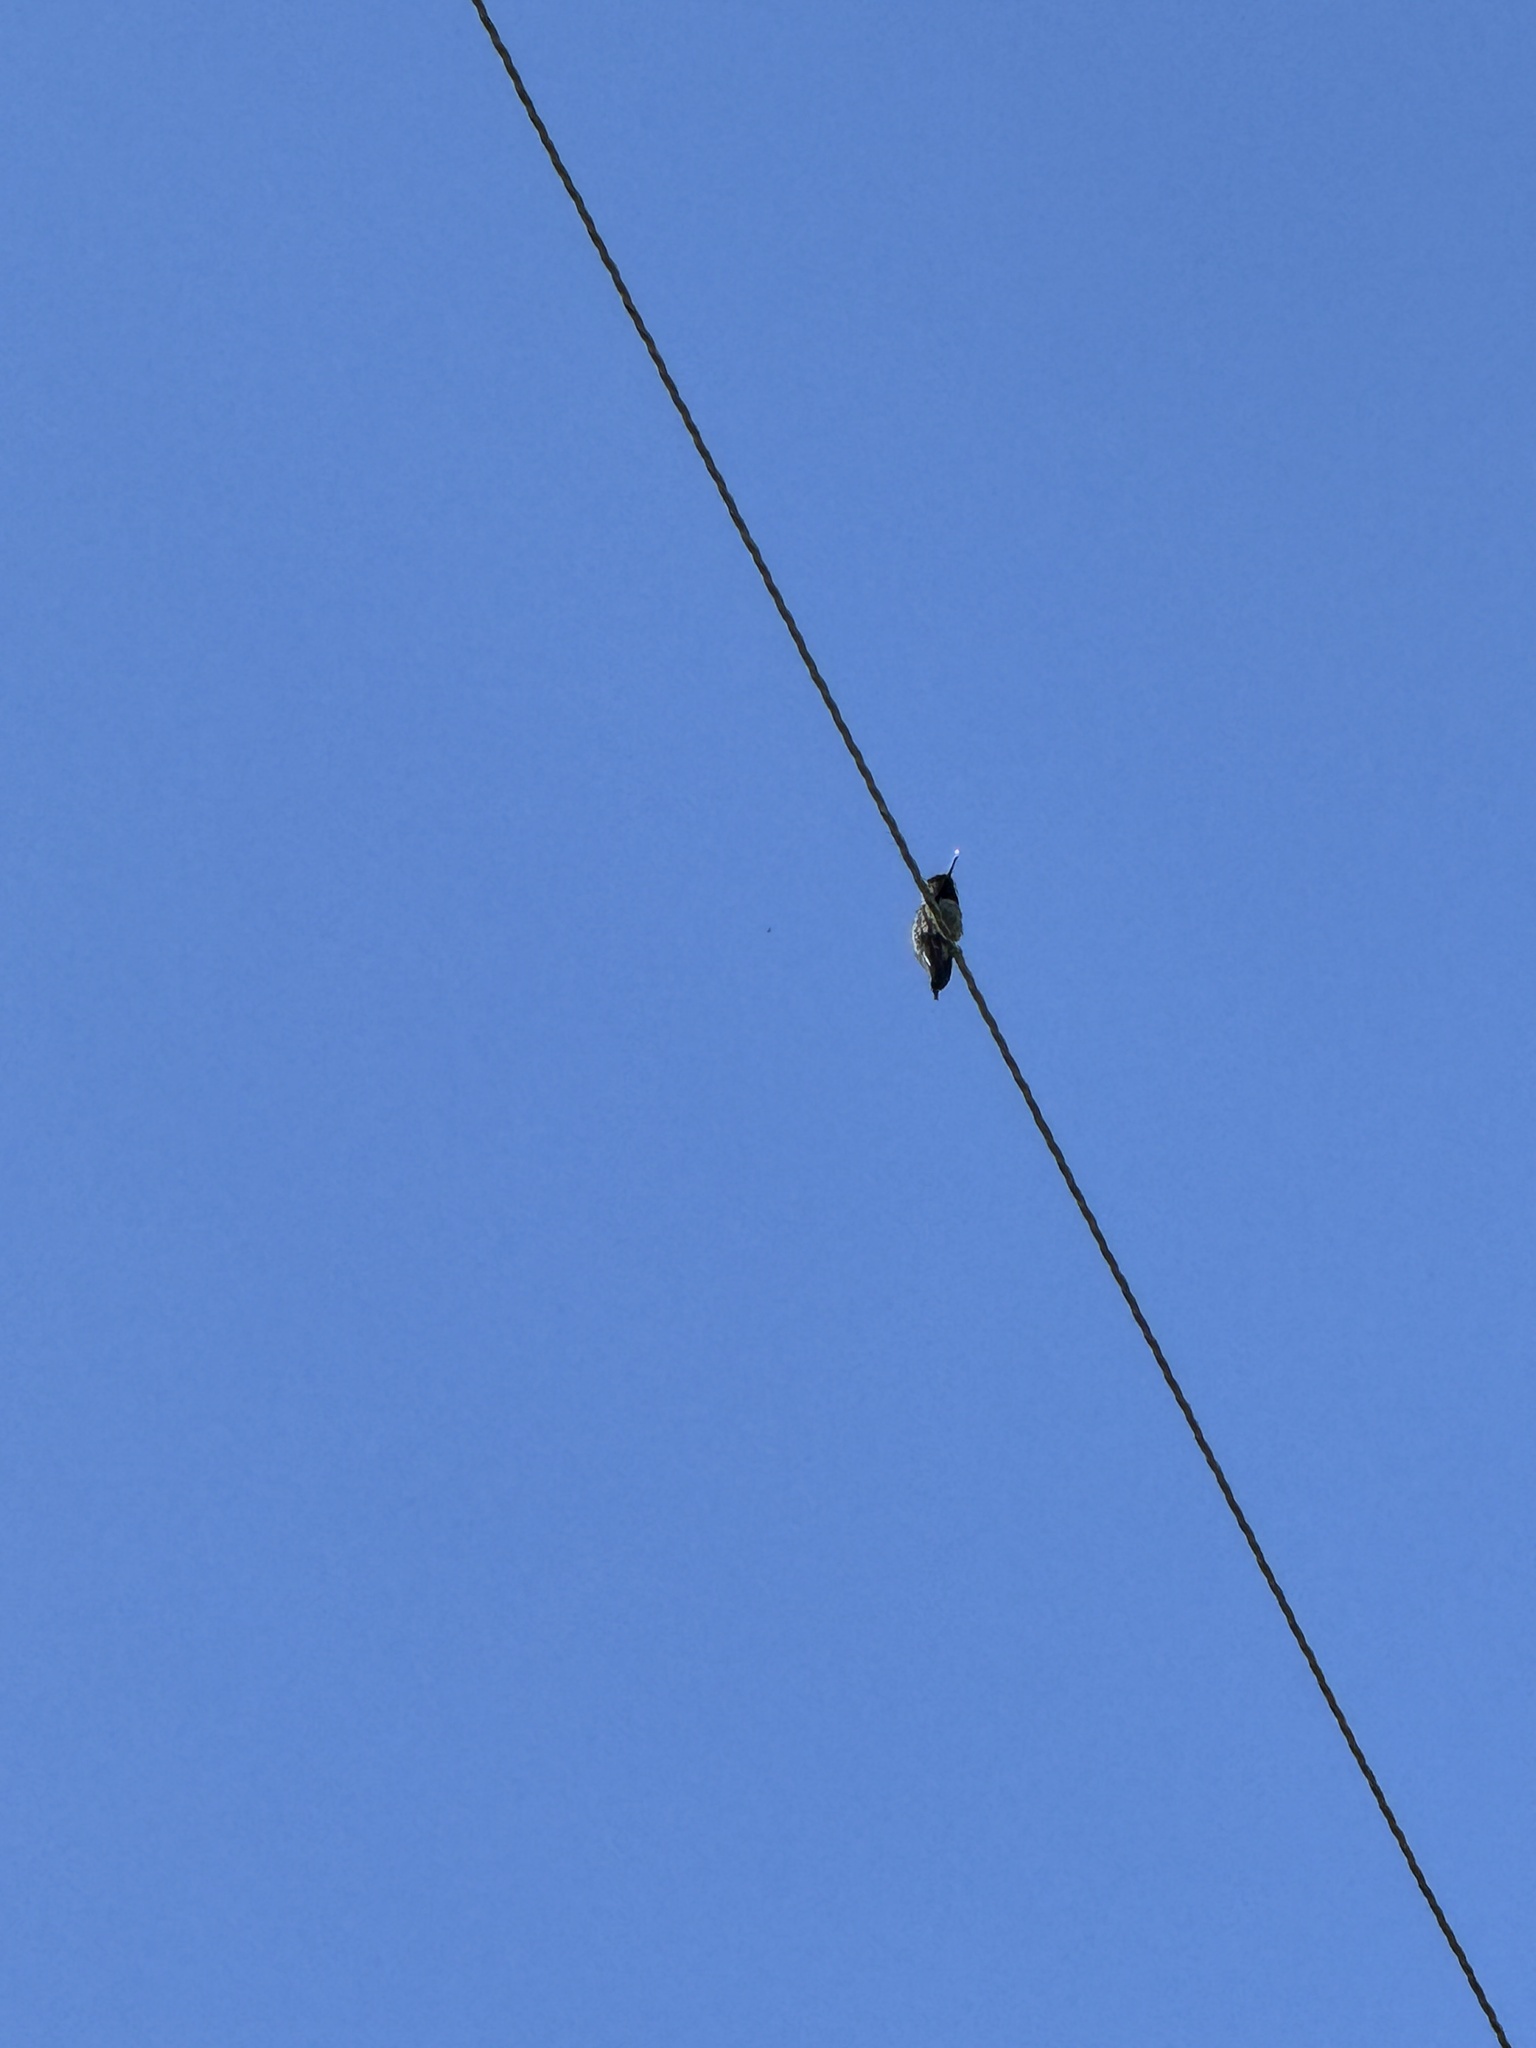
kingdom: Animalia
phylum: Chordata
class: Aves
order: Apodiformes
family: Trochilidae
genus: Calypte
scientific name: Calypte anna
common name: Anna's hummingbird
